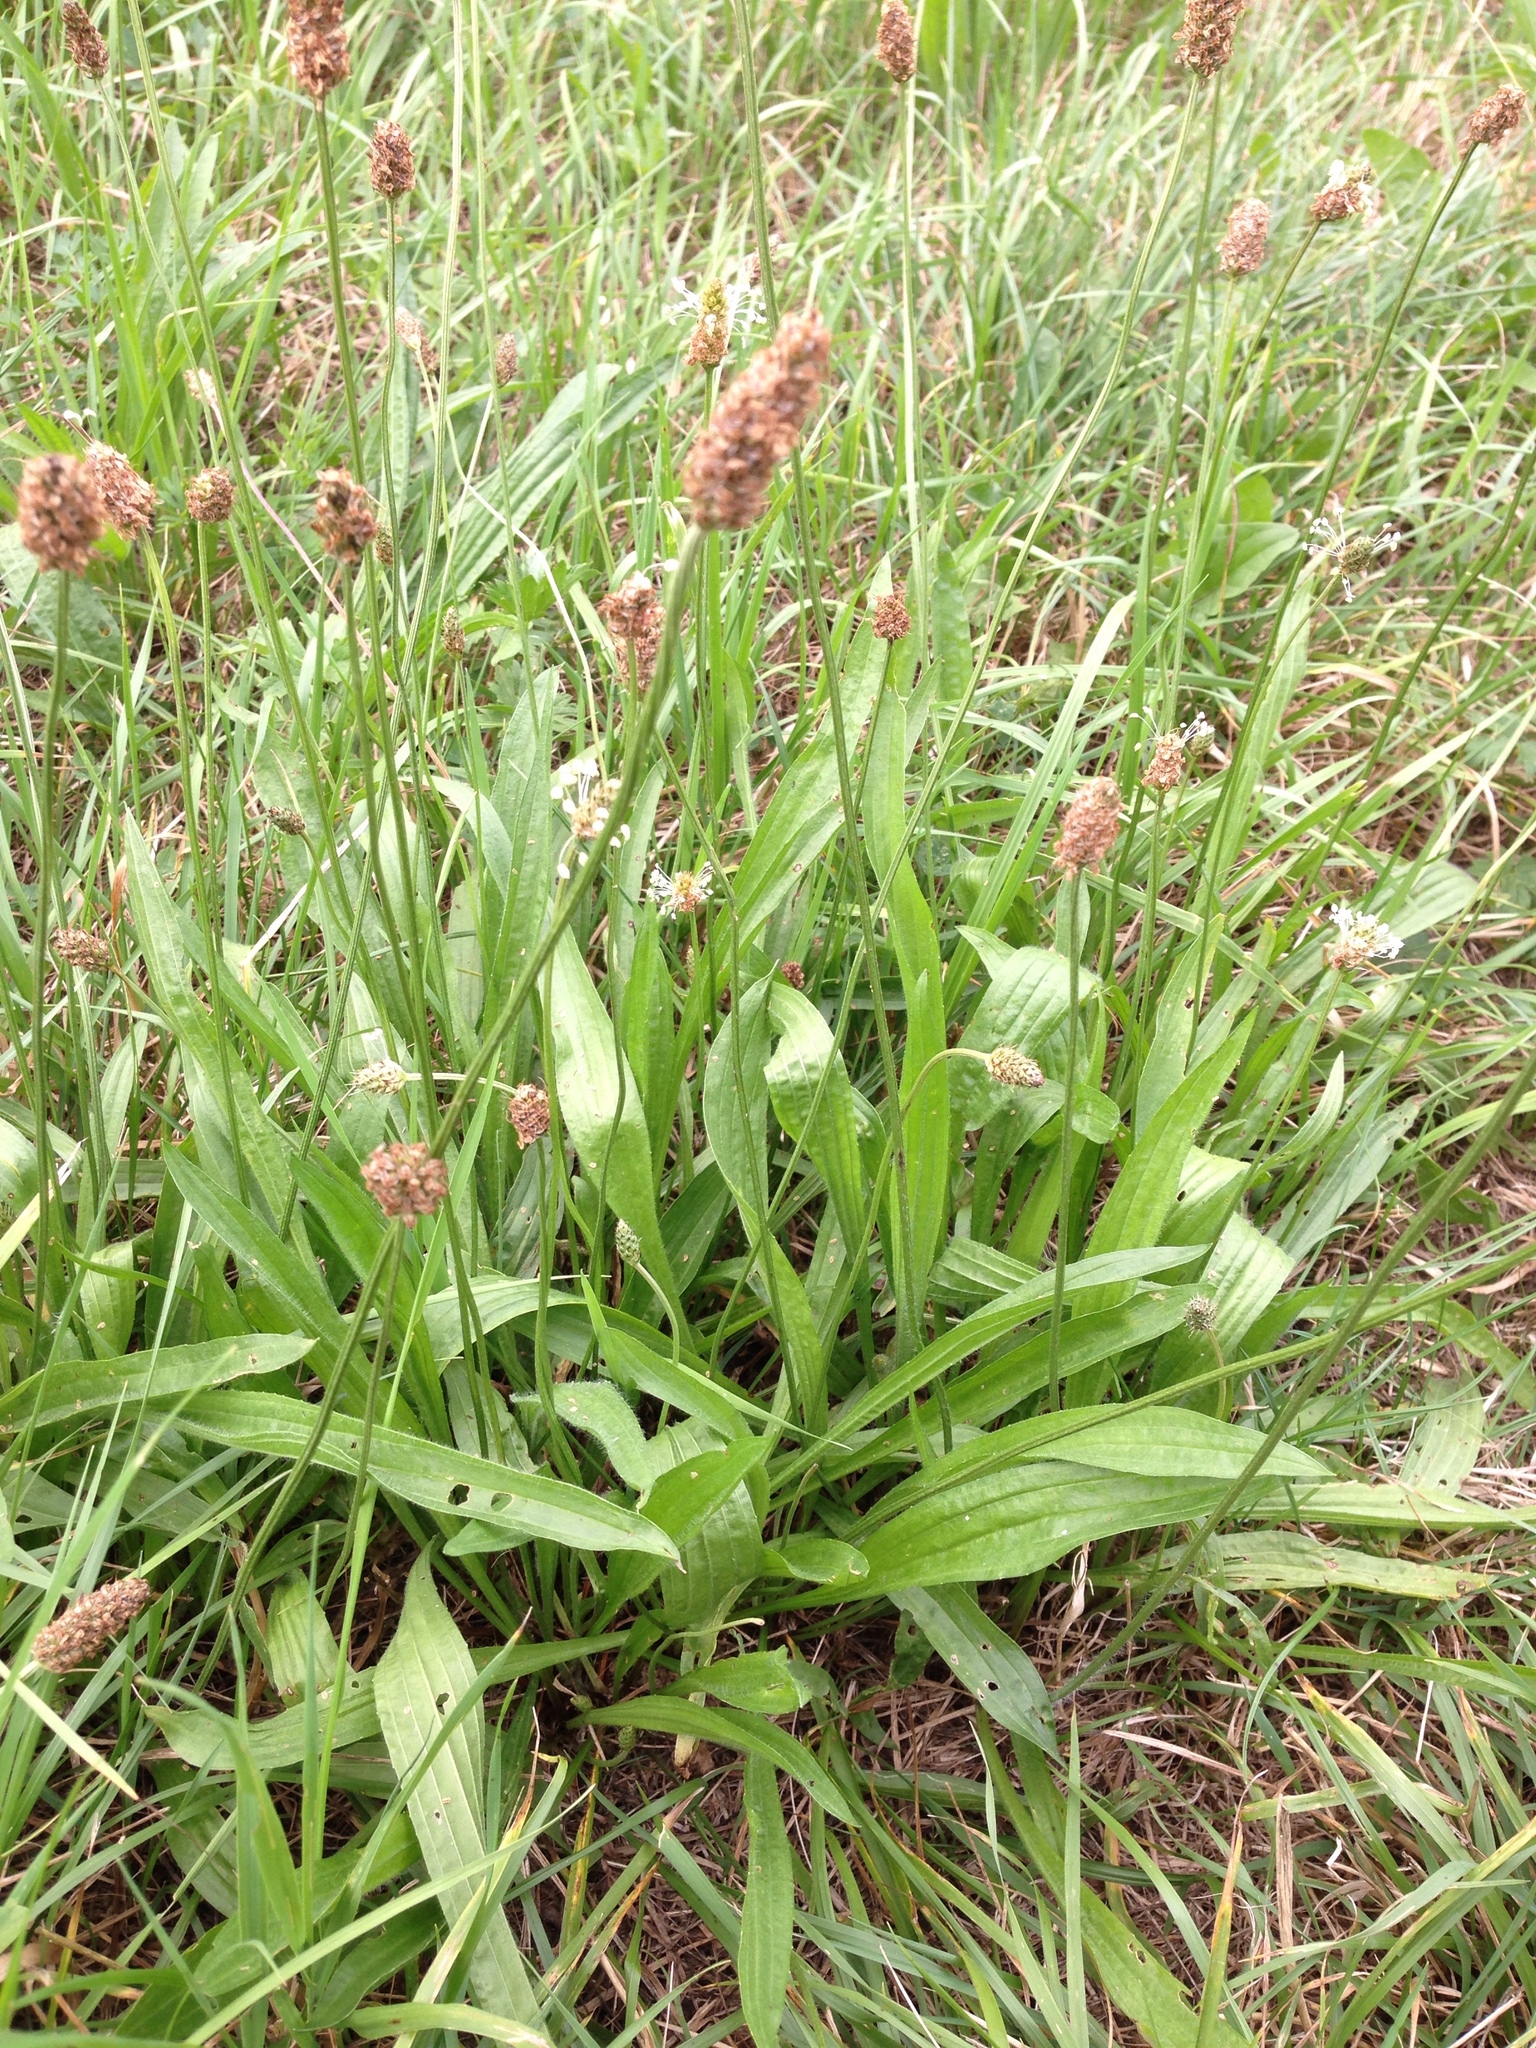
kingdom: Plantae
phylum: Tracheophyta
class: Magnoliopsida
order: Lamiales
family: Plantaginaceae
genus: Plantago
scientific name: Plantago lanceolata
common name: Ribwort plantain
